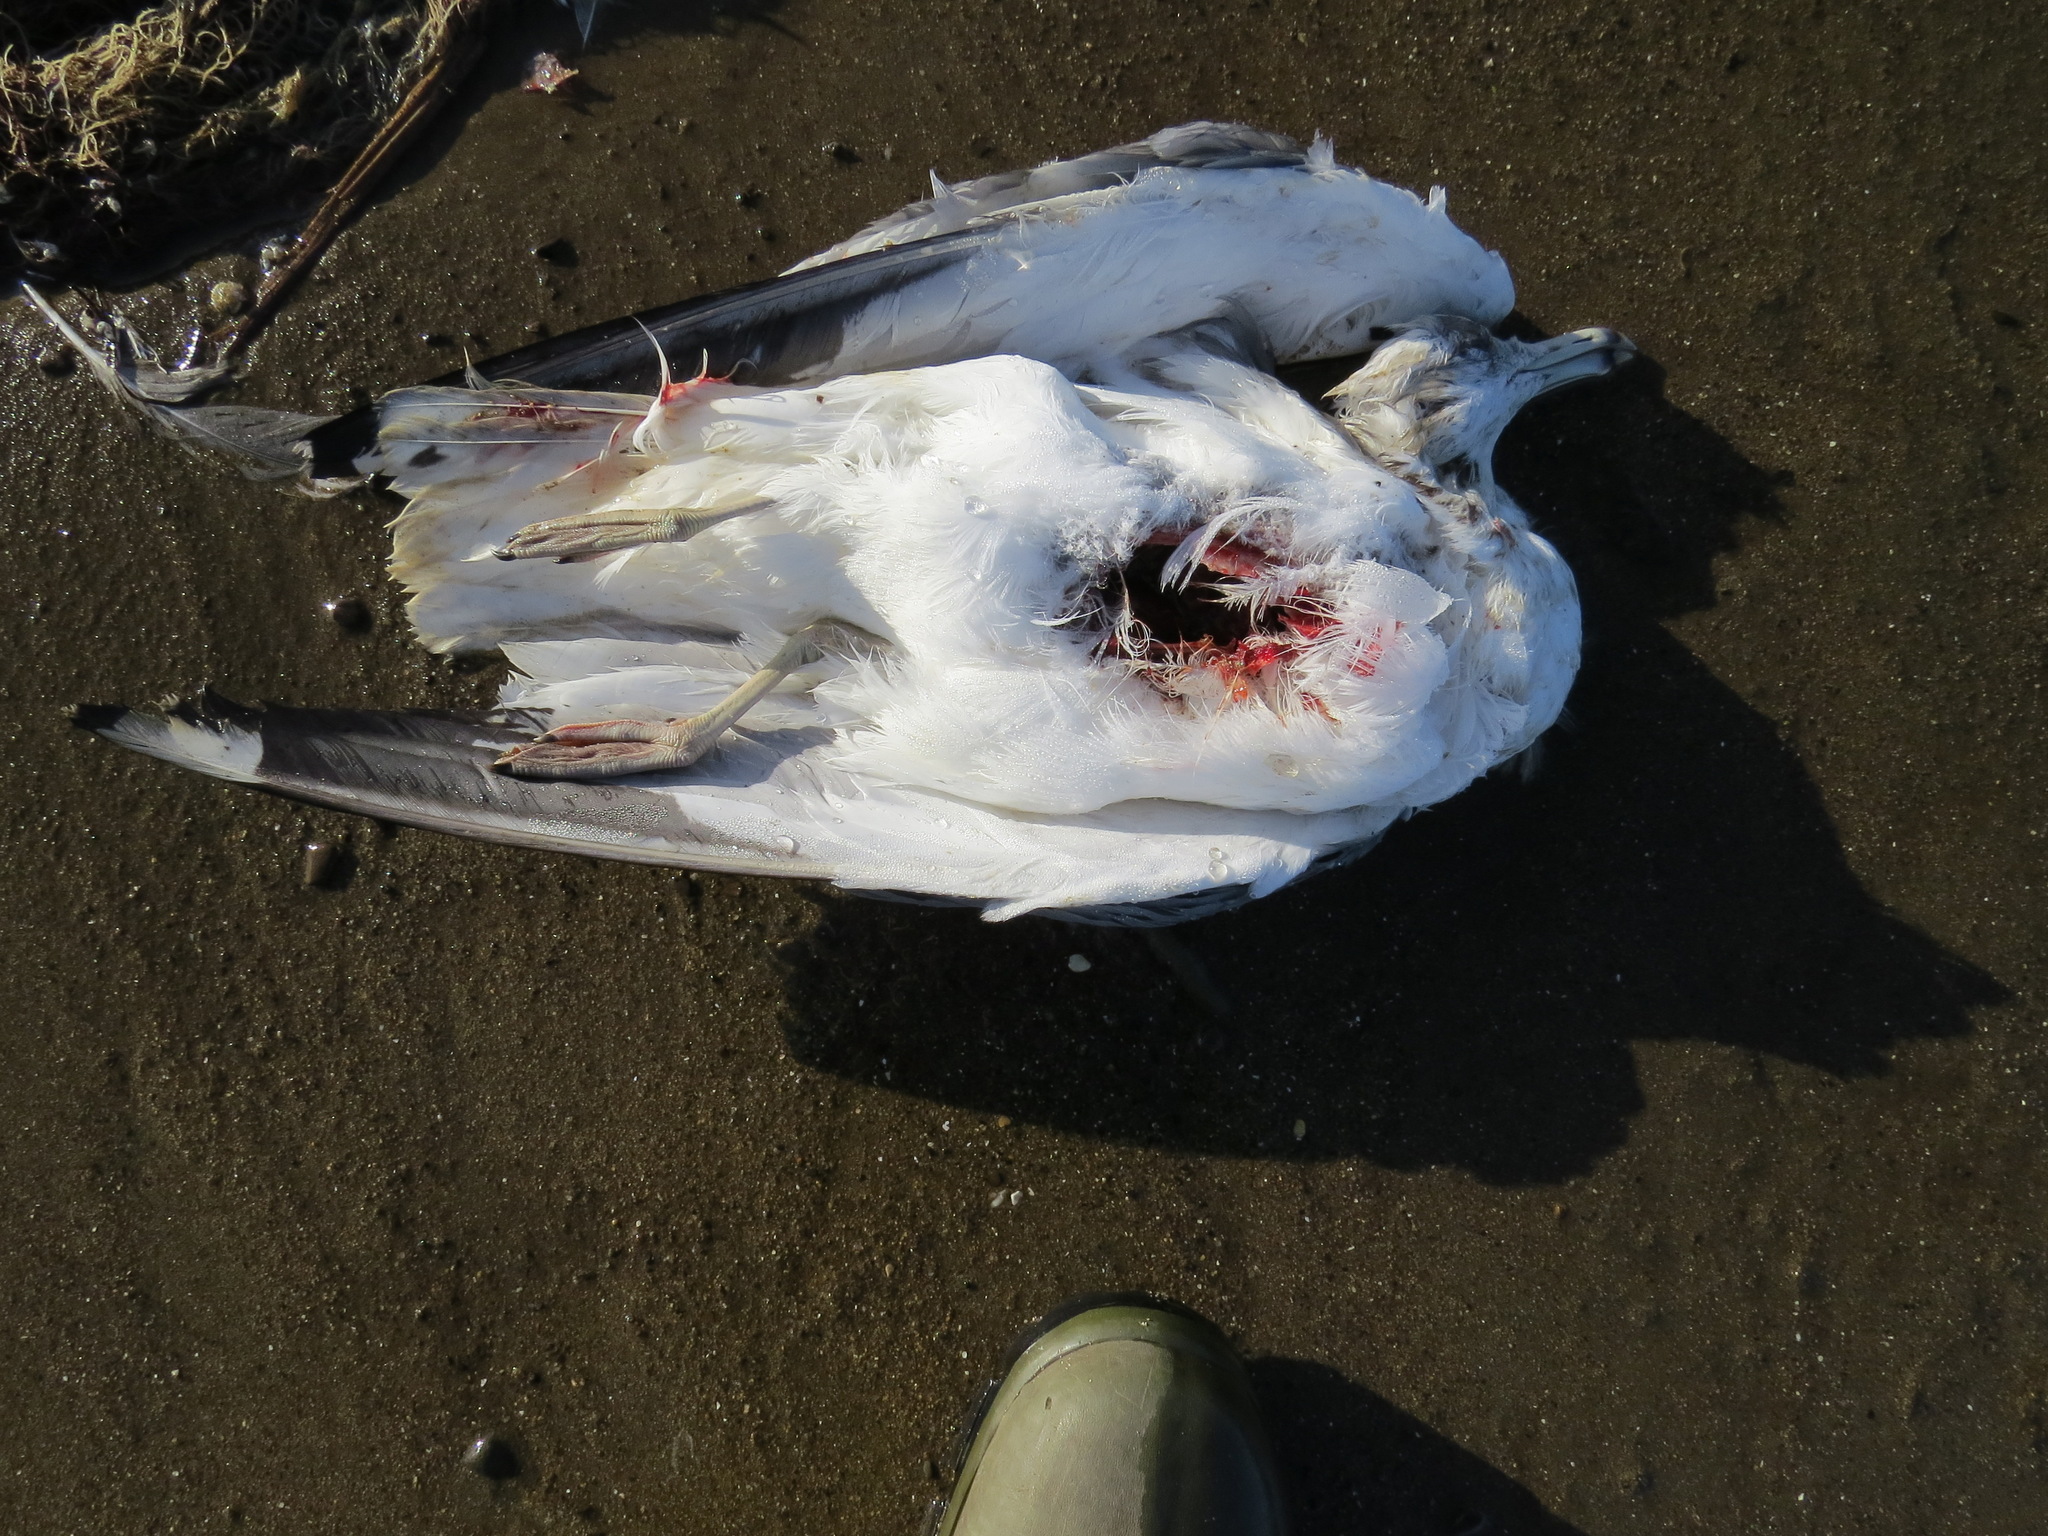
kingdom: Animalia
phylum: Chordata
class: Aves
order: Charadriiformes
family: Laridae
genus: Larus
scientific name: Larus californicus
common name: California gull
